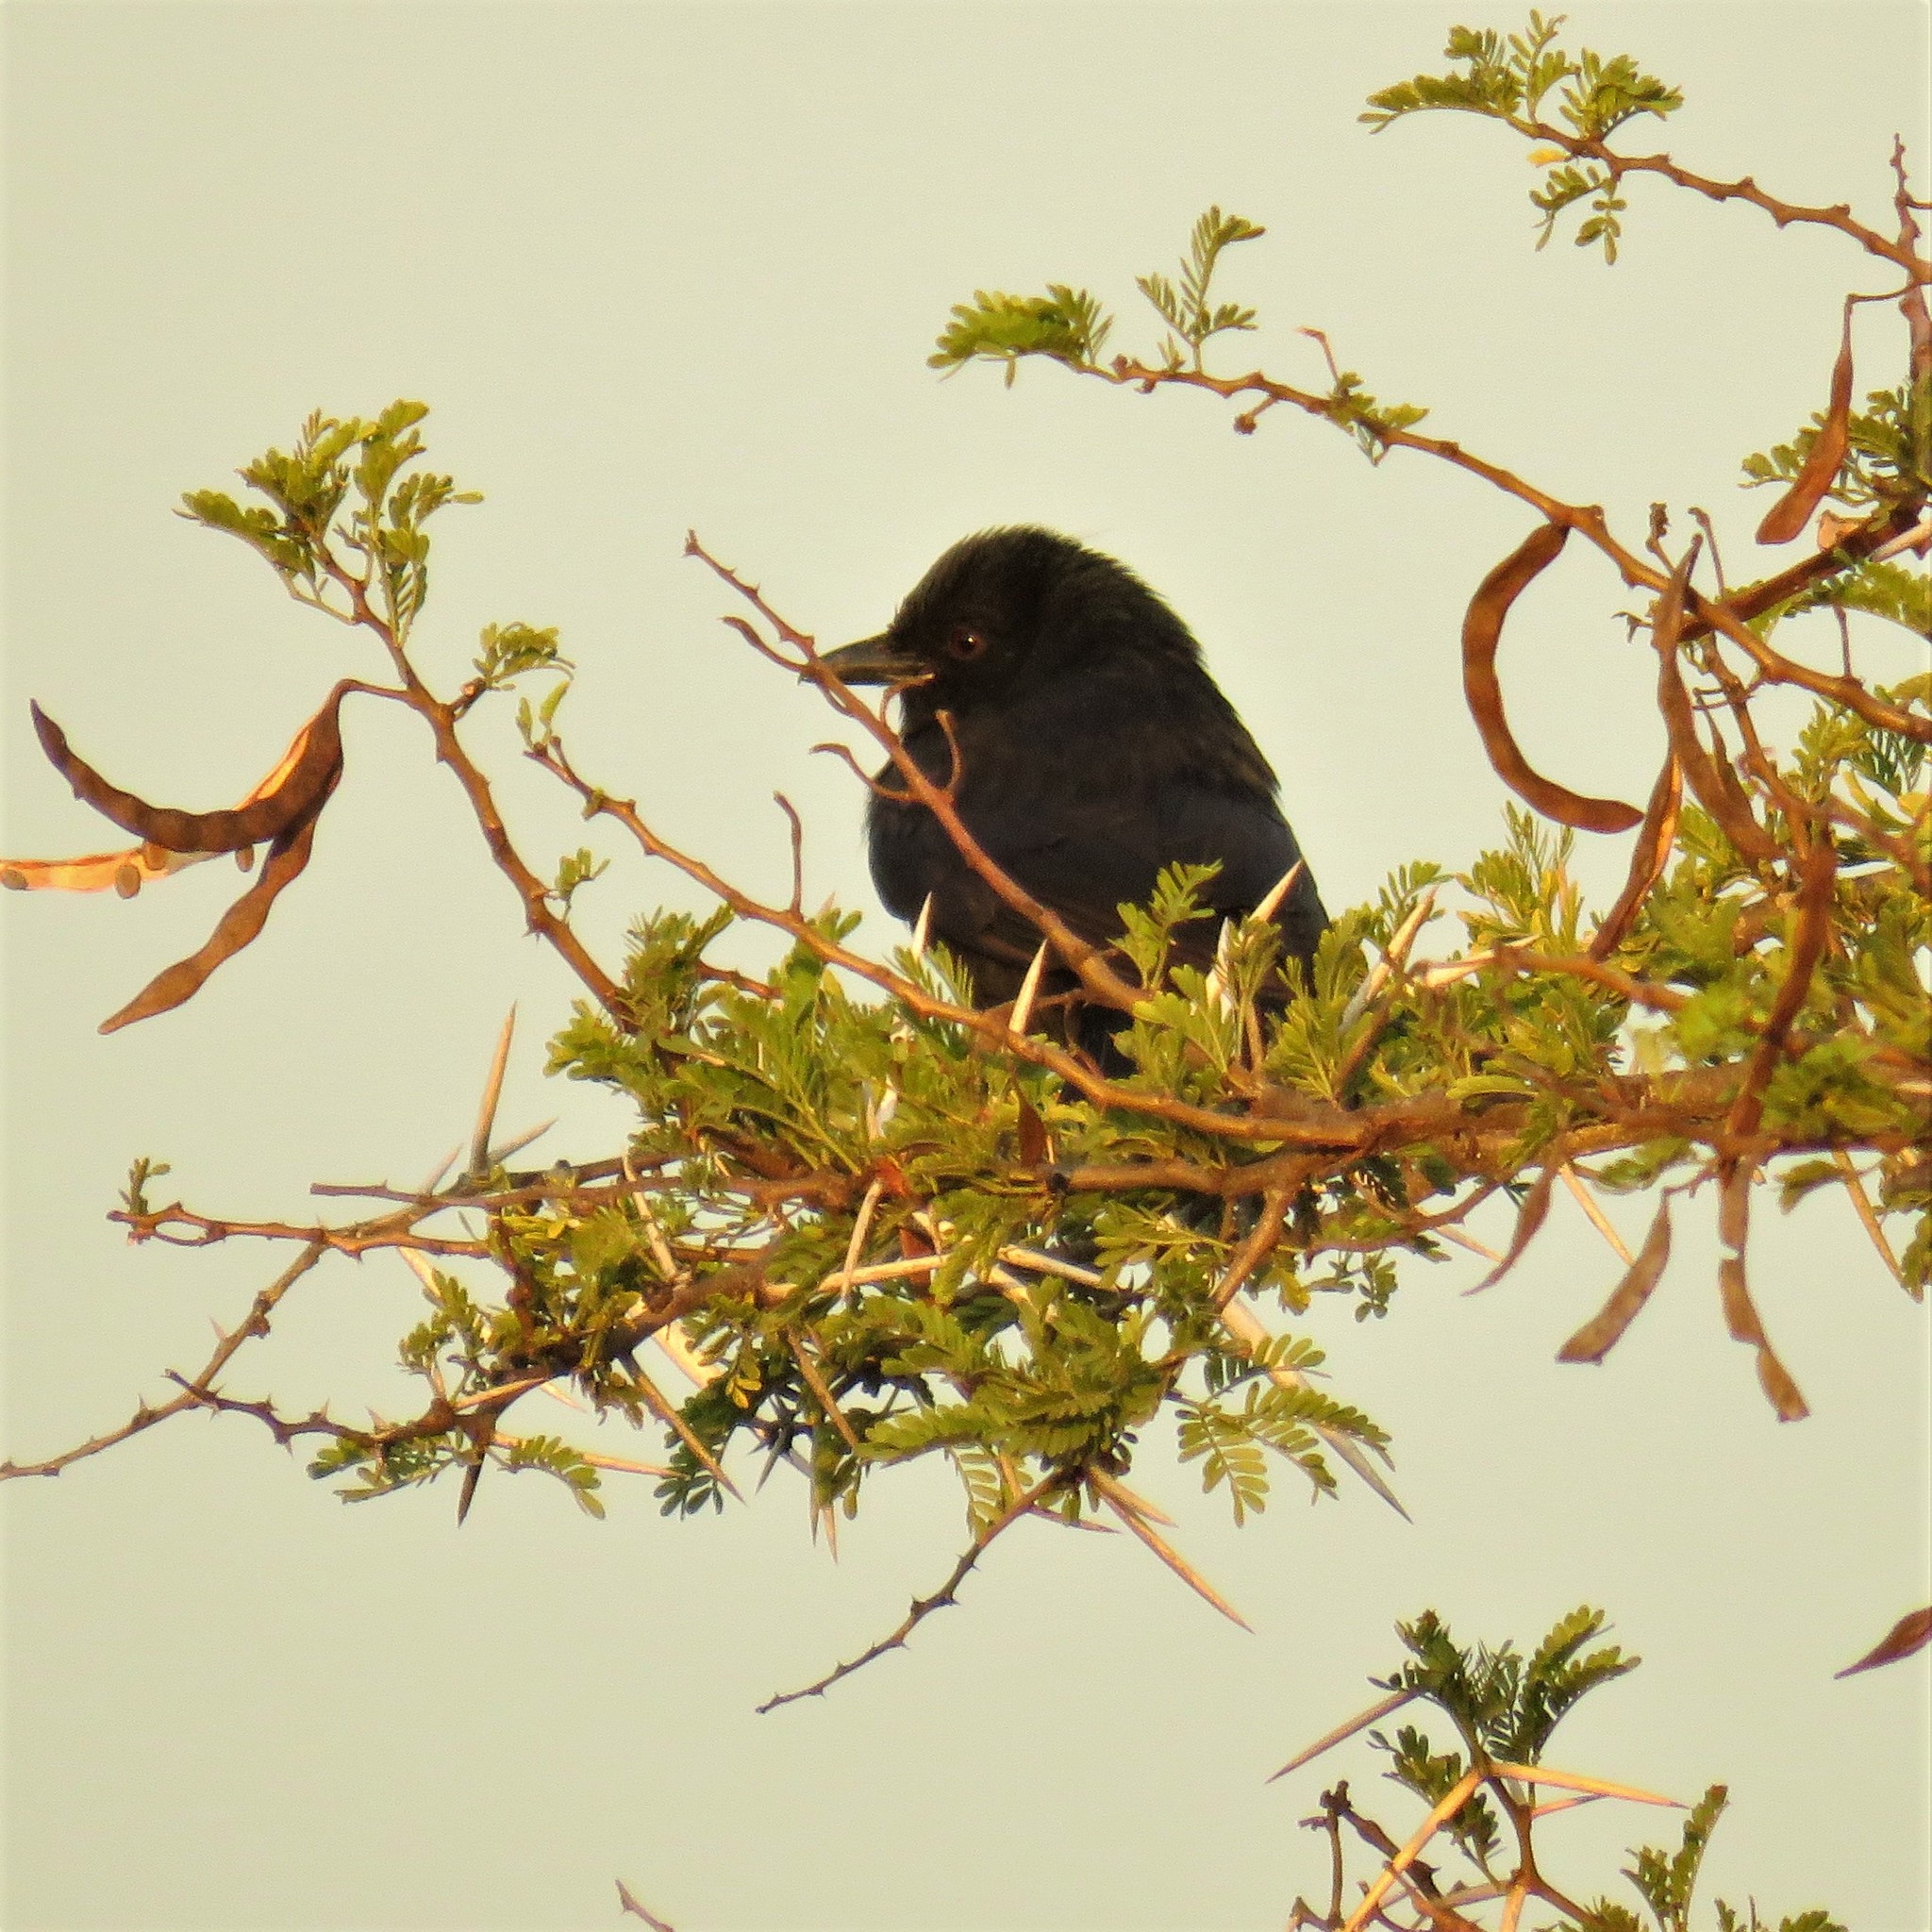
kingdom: Animalia
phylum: Chordata
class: Aves
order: Passeriformes
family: Dicruridae
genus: Dicrurus
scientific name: Dicrurus adsimilis
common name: Fork-tailed drongo
